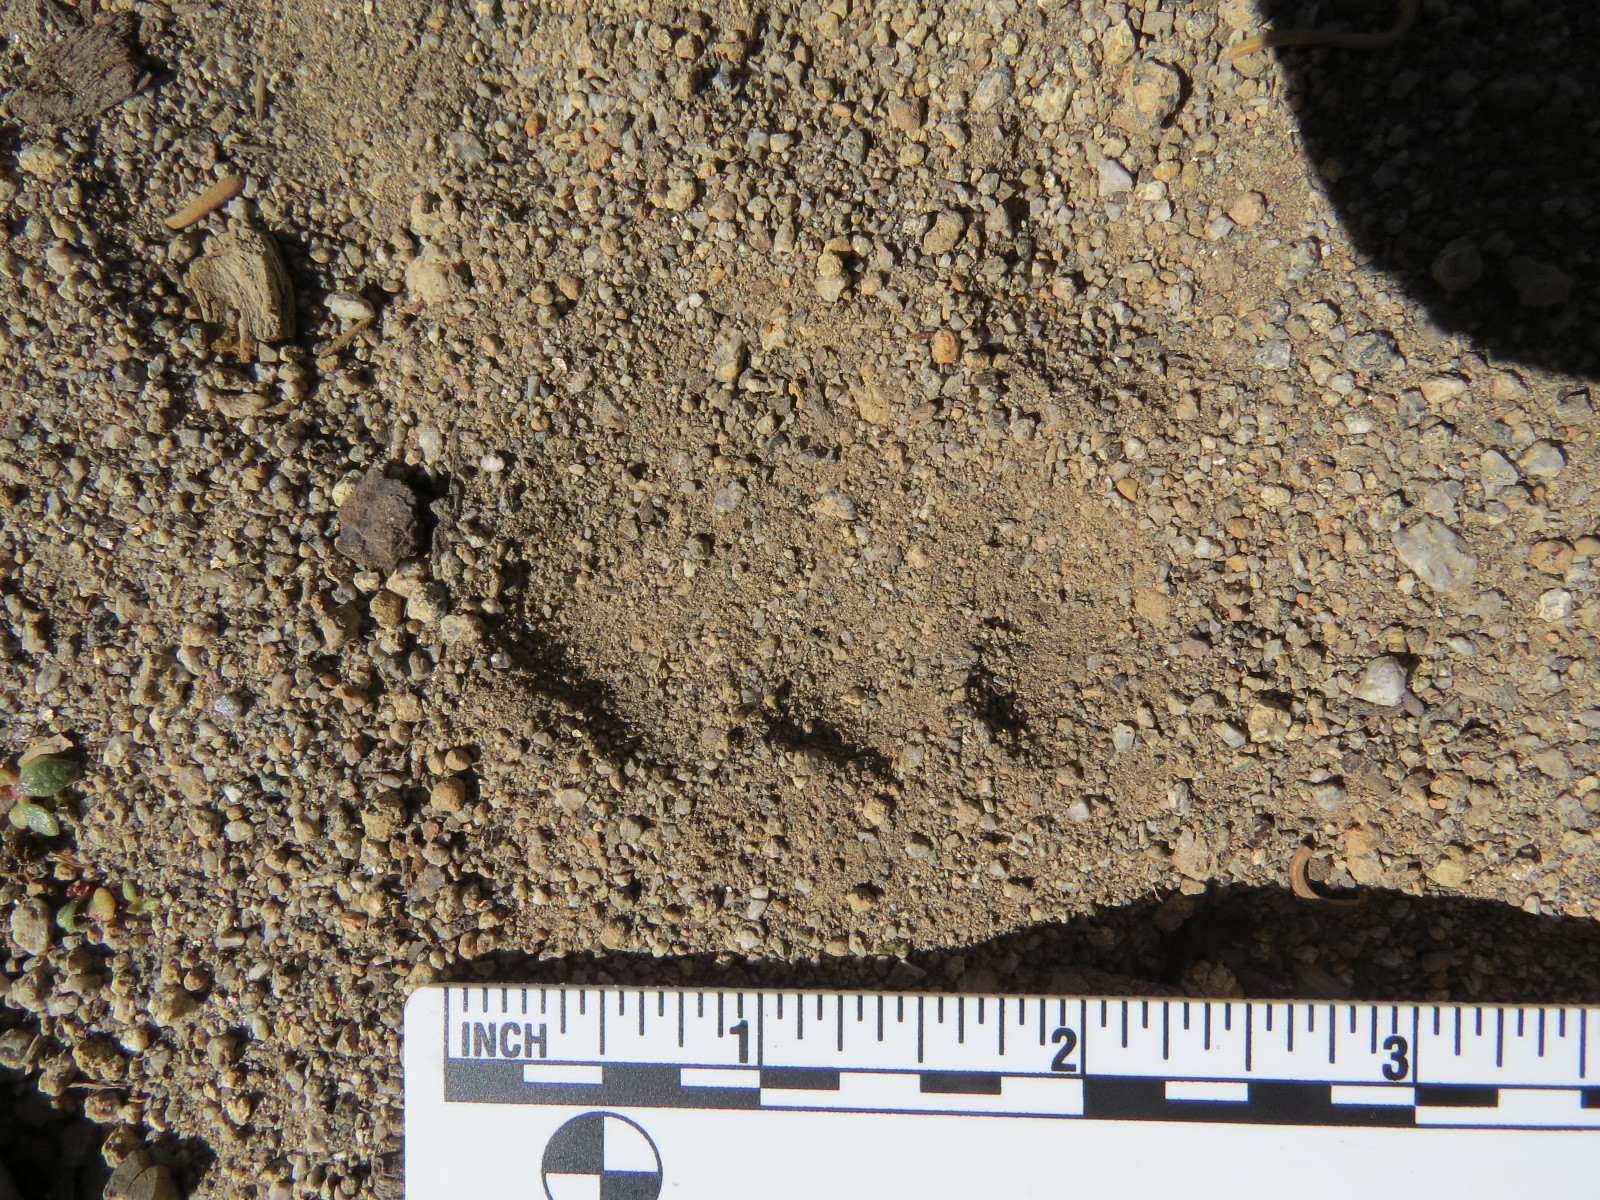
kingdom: Animalia
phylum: Chordata
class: Mammalia
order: Carnivora
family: Felidae
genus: Puma
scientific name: Puma concolor
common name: Puma
